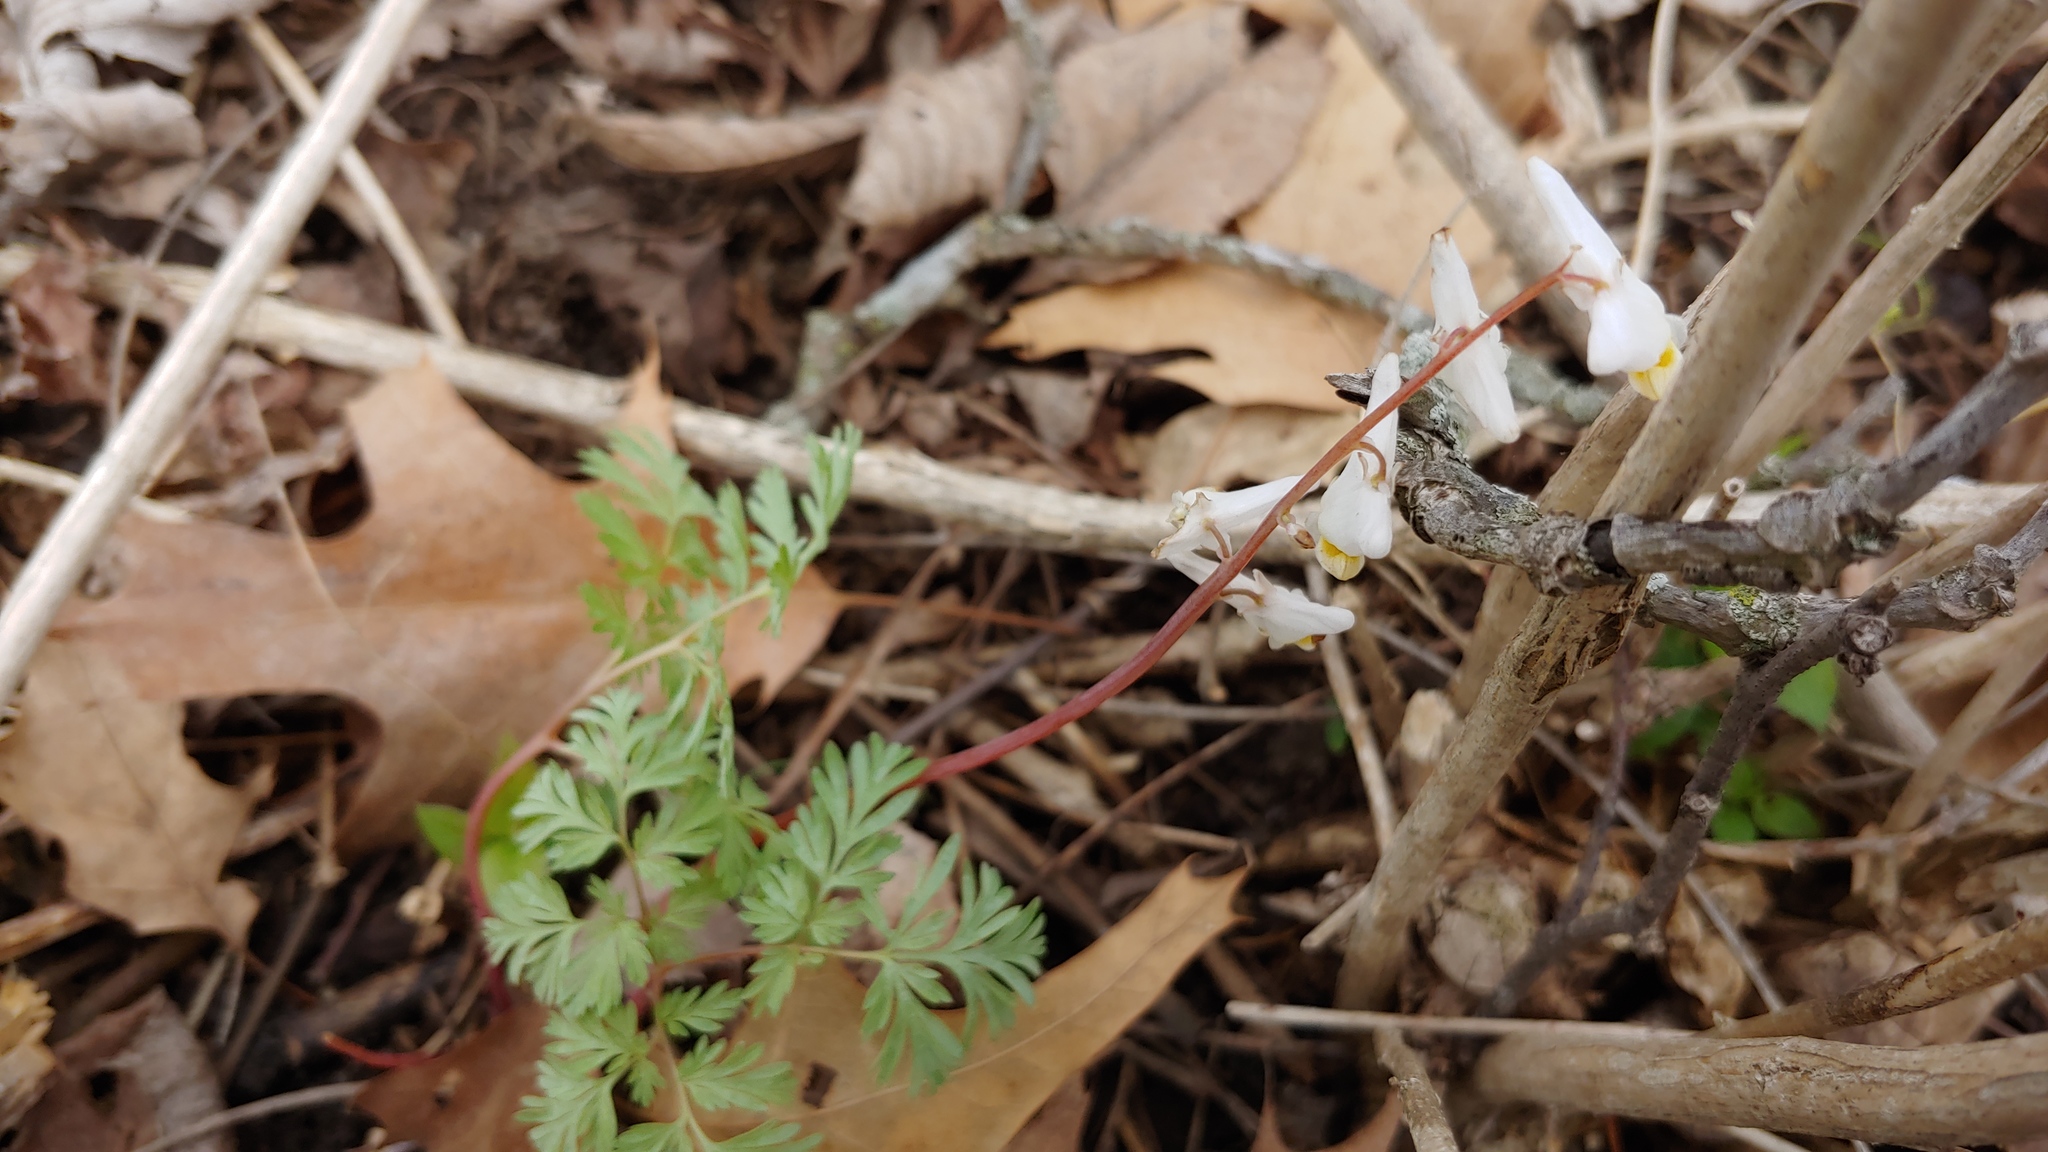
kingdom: Plantae
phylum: Tracheophyta
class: Magnoliopsida
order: Ranunculales
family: Papaveraceae
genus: Dicentra
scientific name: Dicentra cucullaria
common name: Dutchman's breeches
